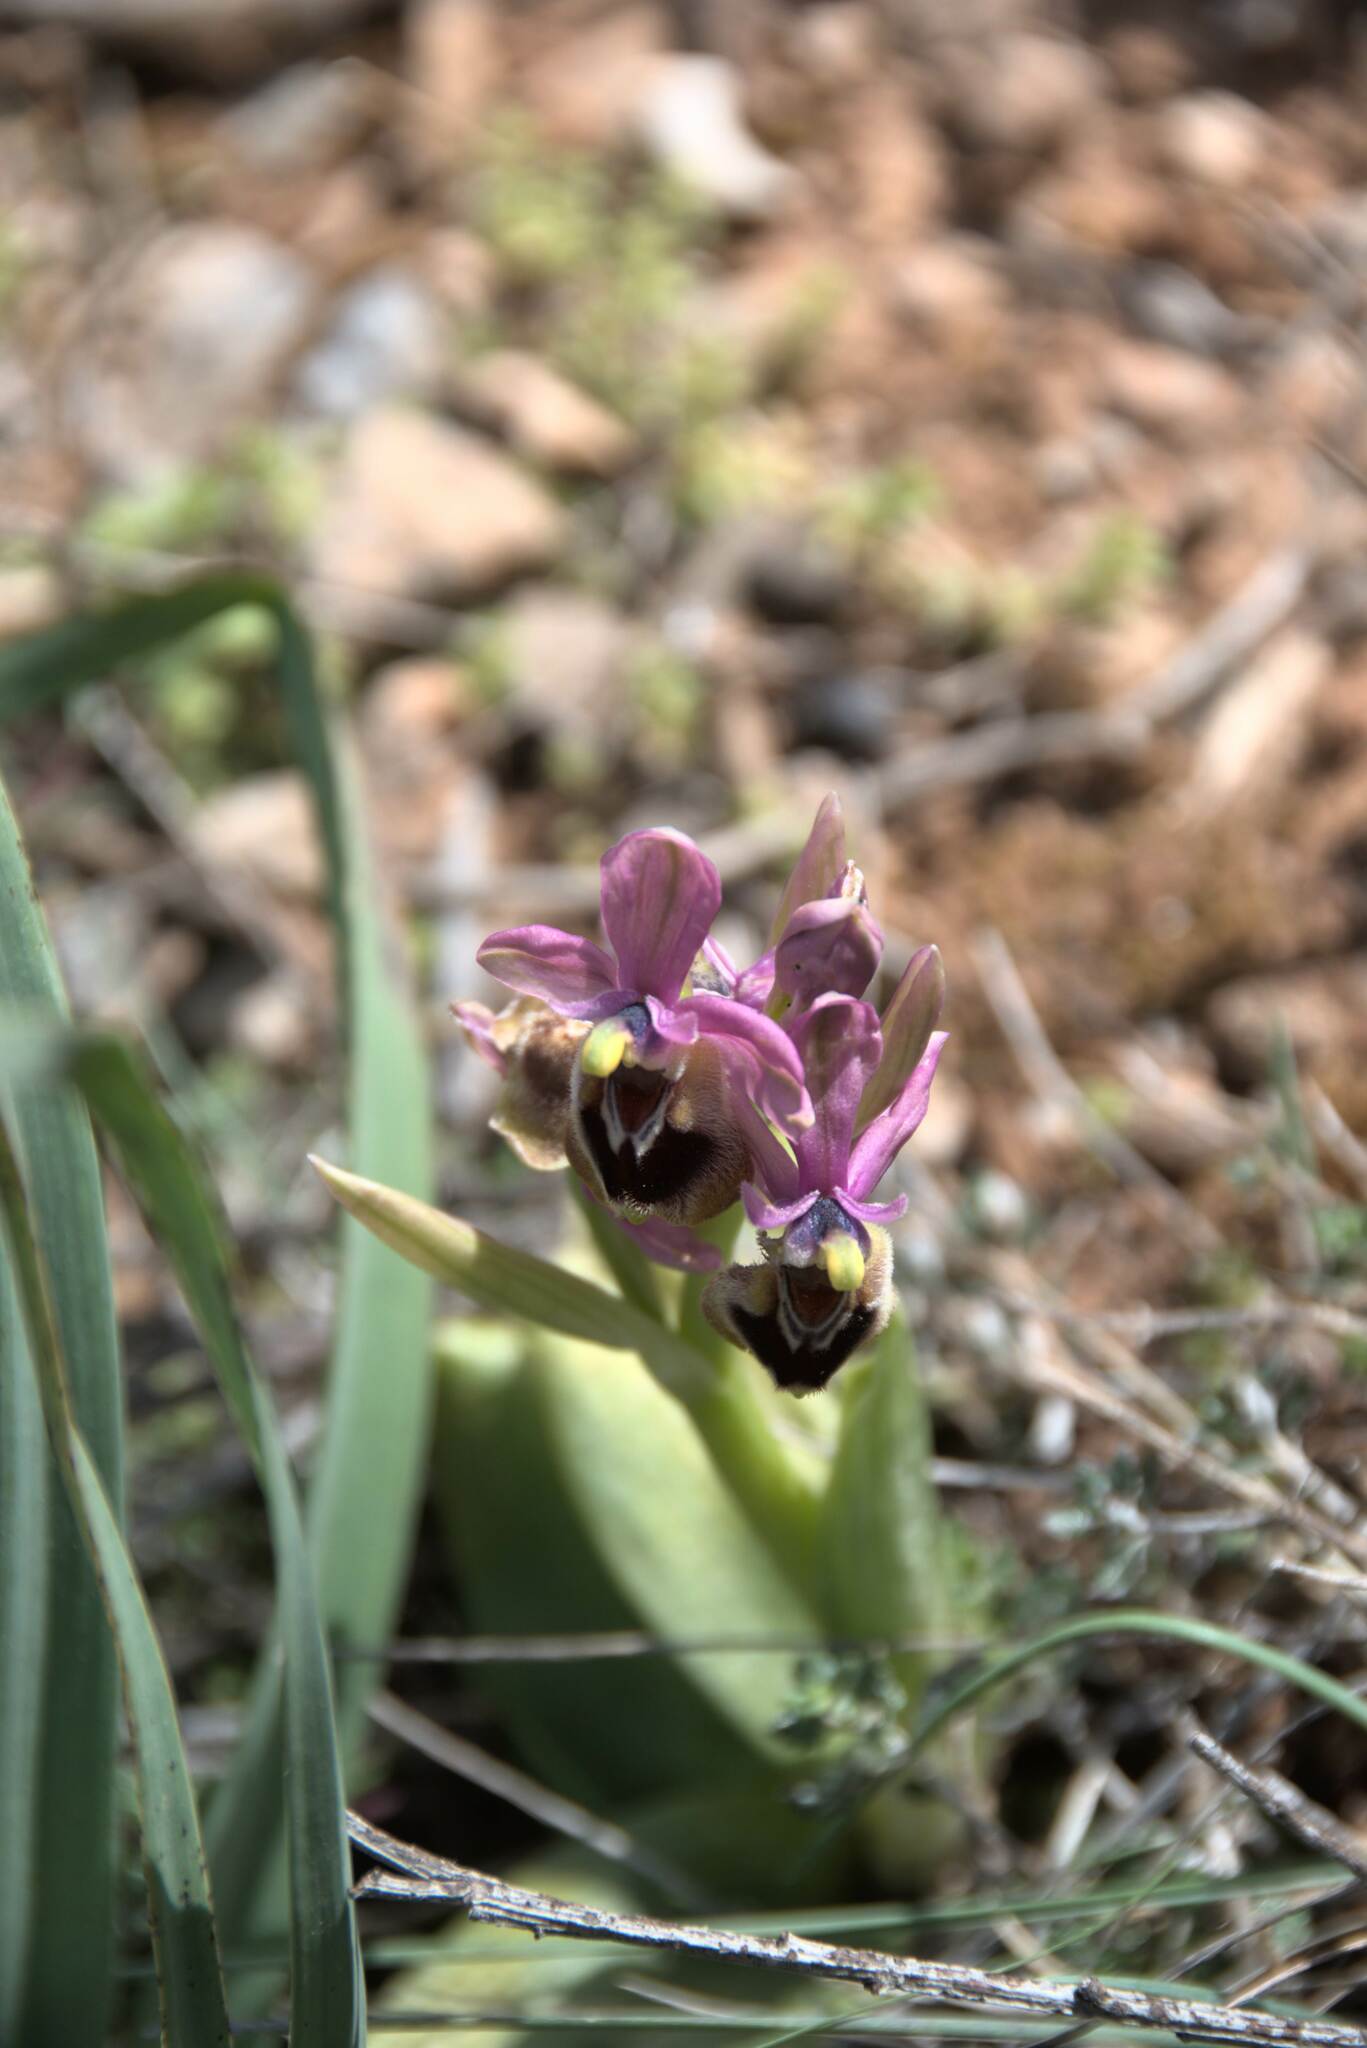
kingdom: Plantae
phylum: Tracheophyta
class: Liliopsida
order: Asparagales
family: Orchidaceae
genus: Ophrys
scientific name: Ophrys tenthredinifera
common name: Sawfly orchid
